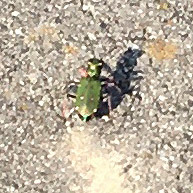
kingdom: Animalia
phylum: Arthropoda
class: Insecta
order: Coleoptera
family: Carabidae
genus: Cicindela
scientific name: Cicindela campestris
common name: Common tiger beetle
